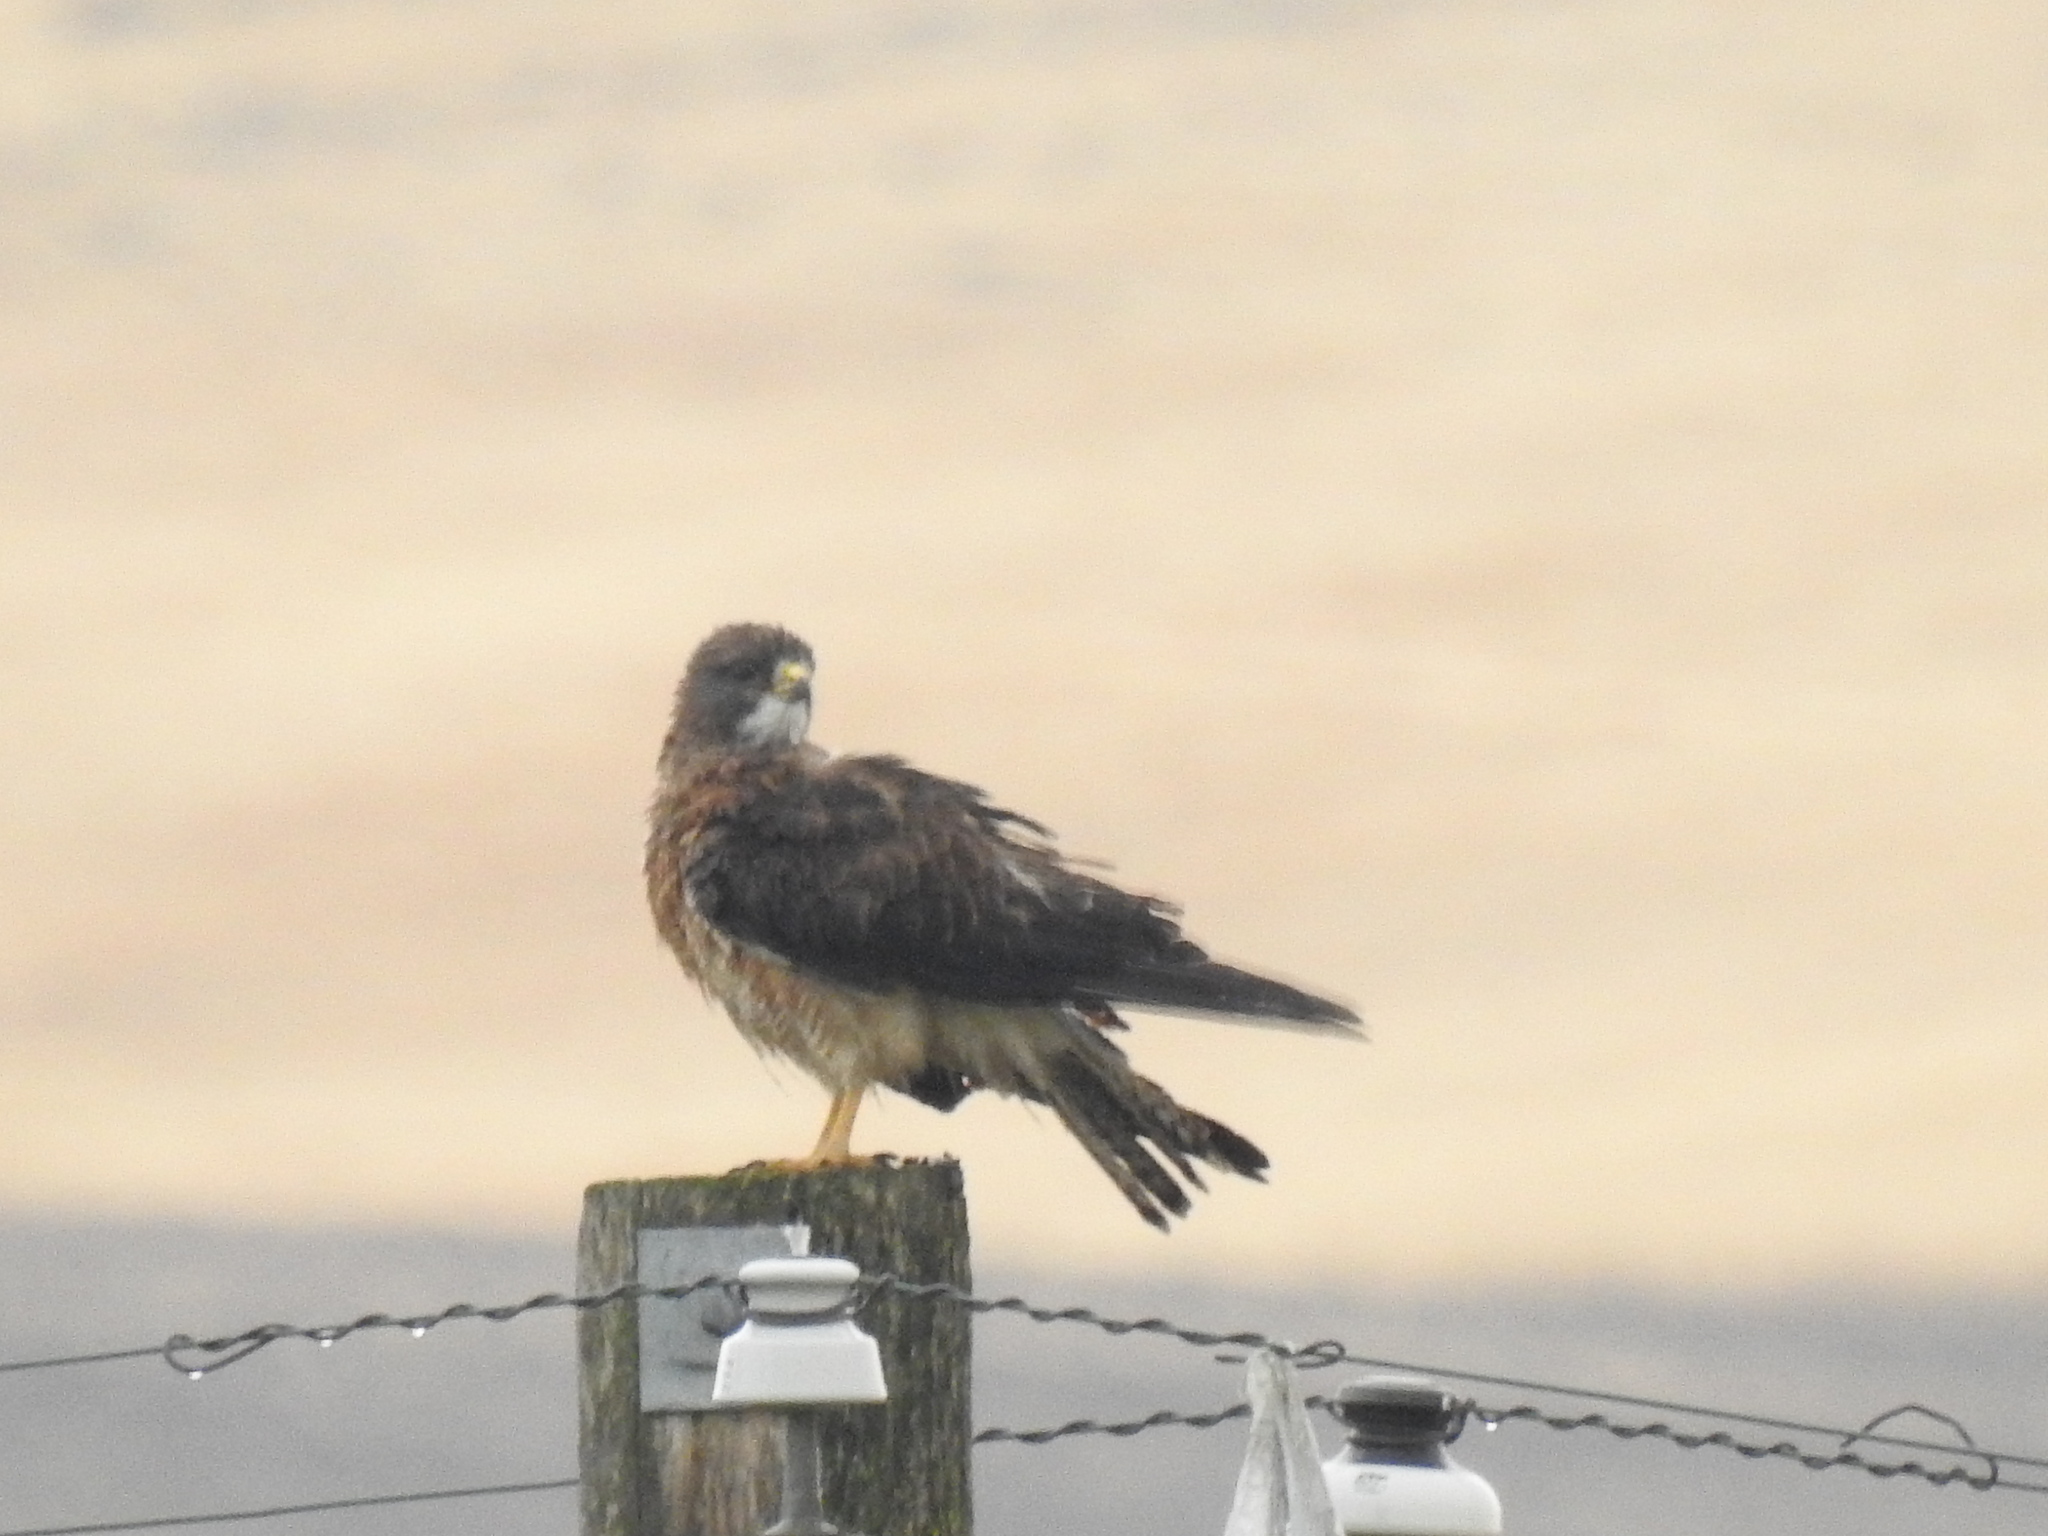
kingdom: Animalia
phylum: Chordata
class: Aves
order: Accipitriformes
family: Accipitridae
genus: Buteo
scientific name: Buteo swainsoni
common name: Swainson's hawk
